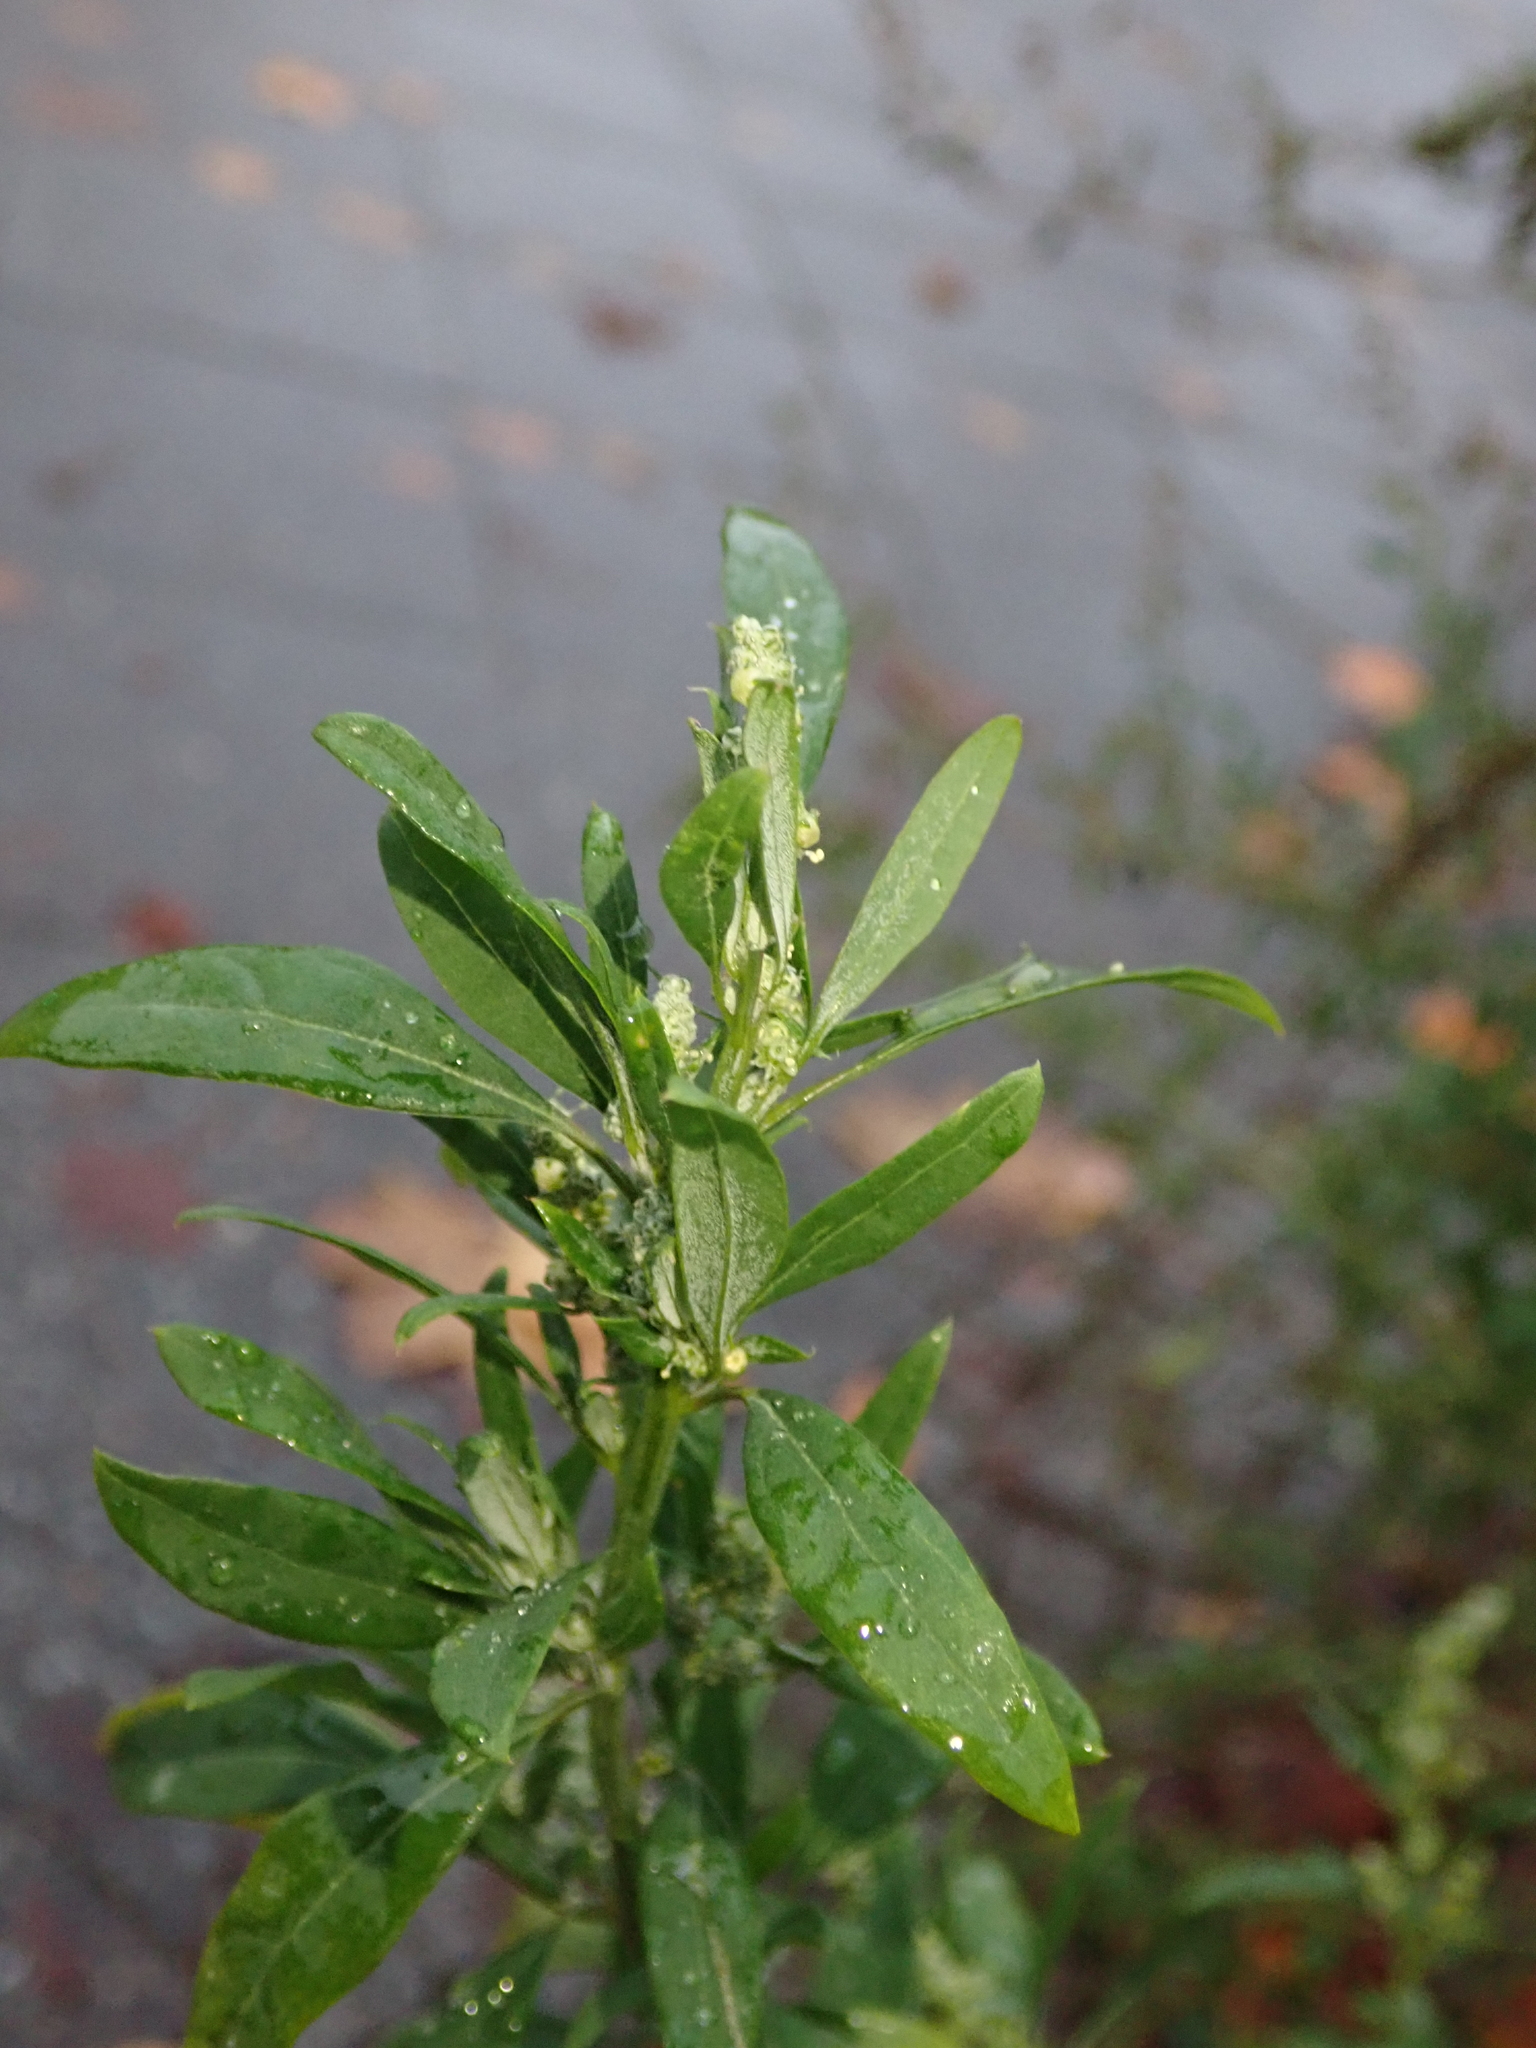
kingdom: Plantae
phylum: Tracheophyta
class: Magnoliopsida
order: Caryophyllales
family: Amaranthaceae
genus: Chenopodium
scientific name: Chenopodium album
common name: Fat-hen
